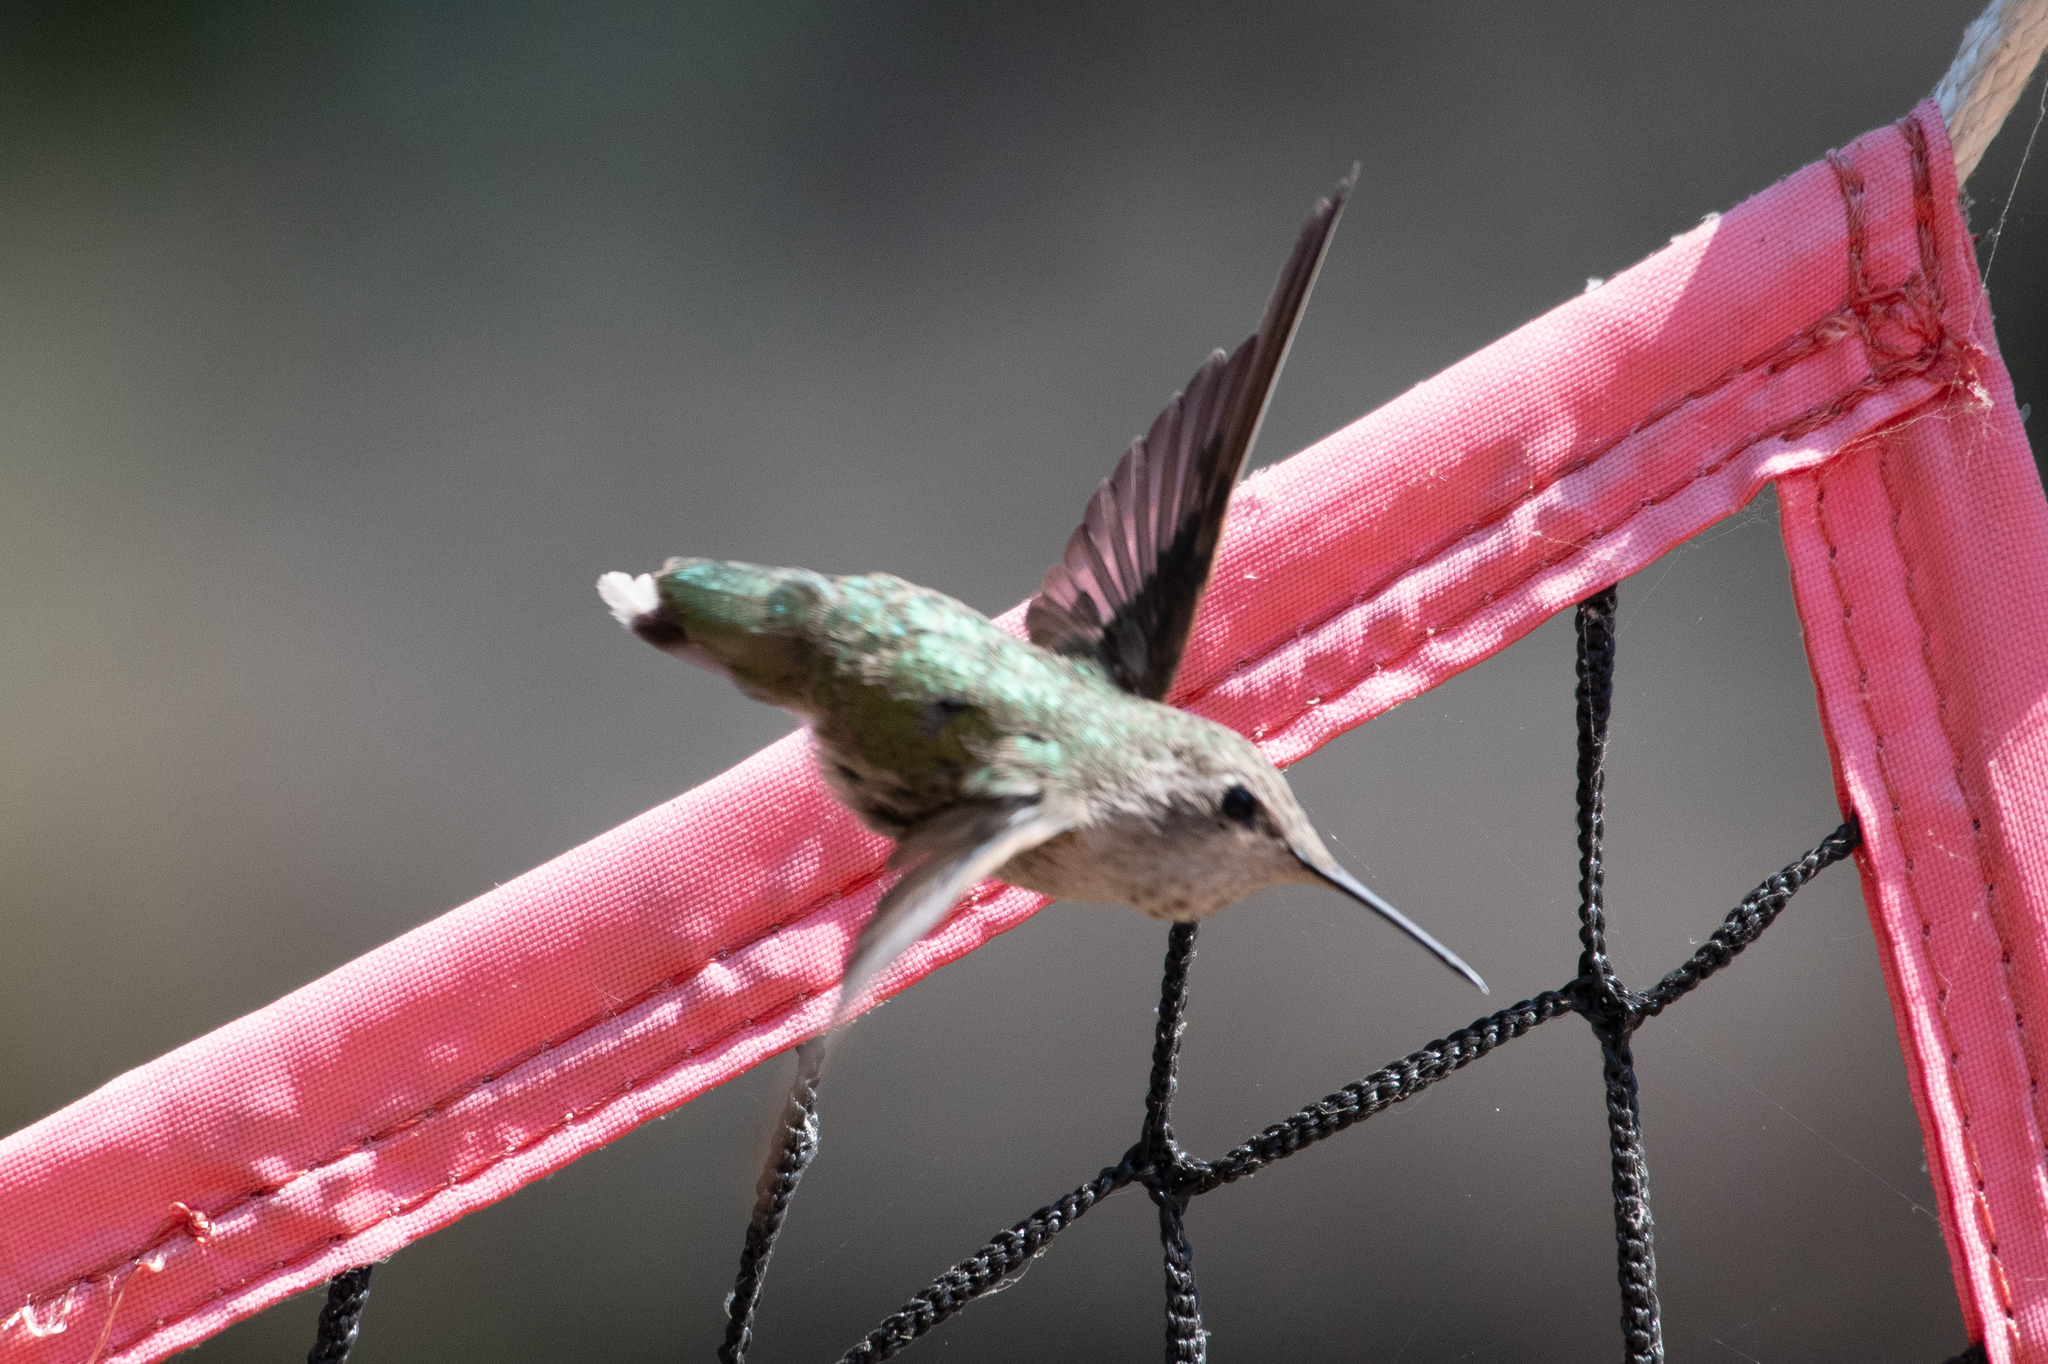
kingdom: Animalia
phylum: Chordata
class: Aves
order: Apodiformes
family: Trochilidae
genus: Calypte
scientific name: Calypte anna
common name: Anna's hummingbird
